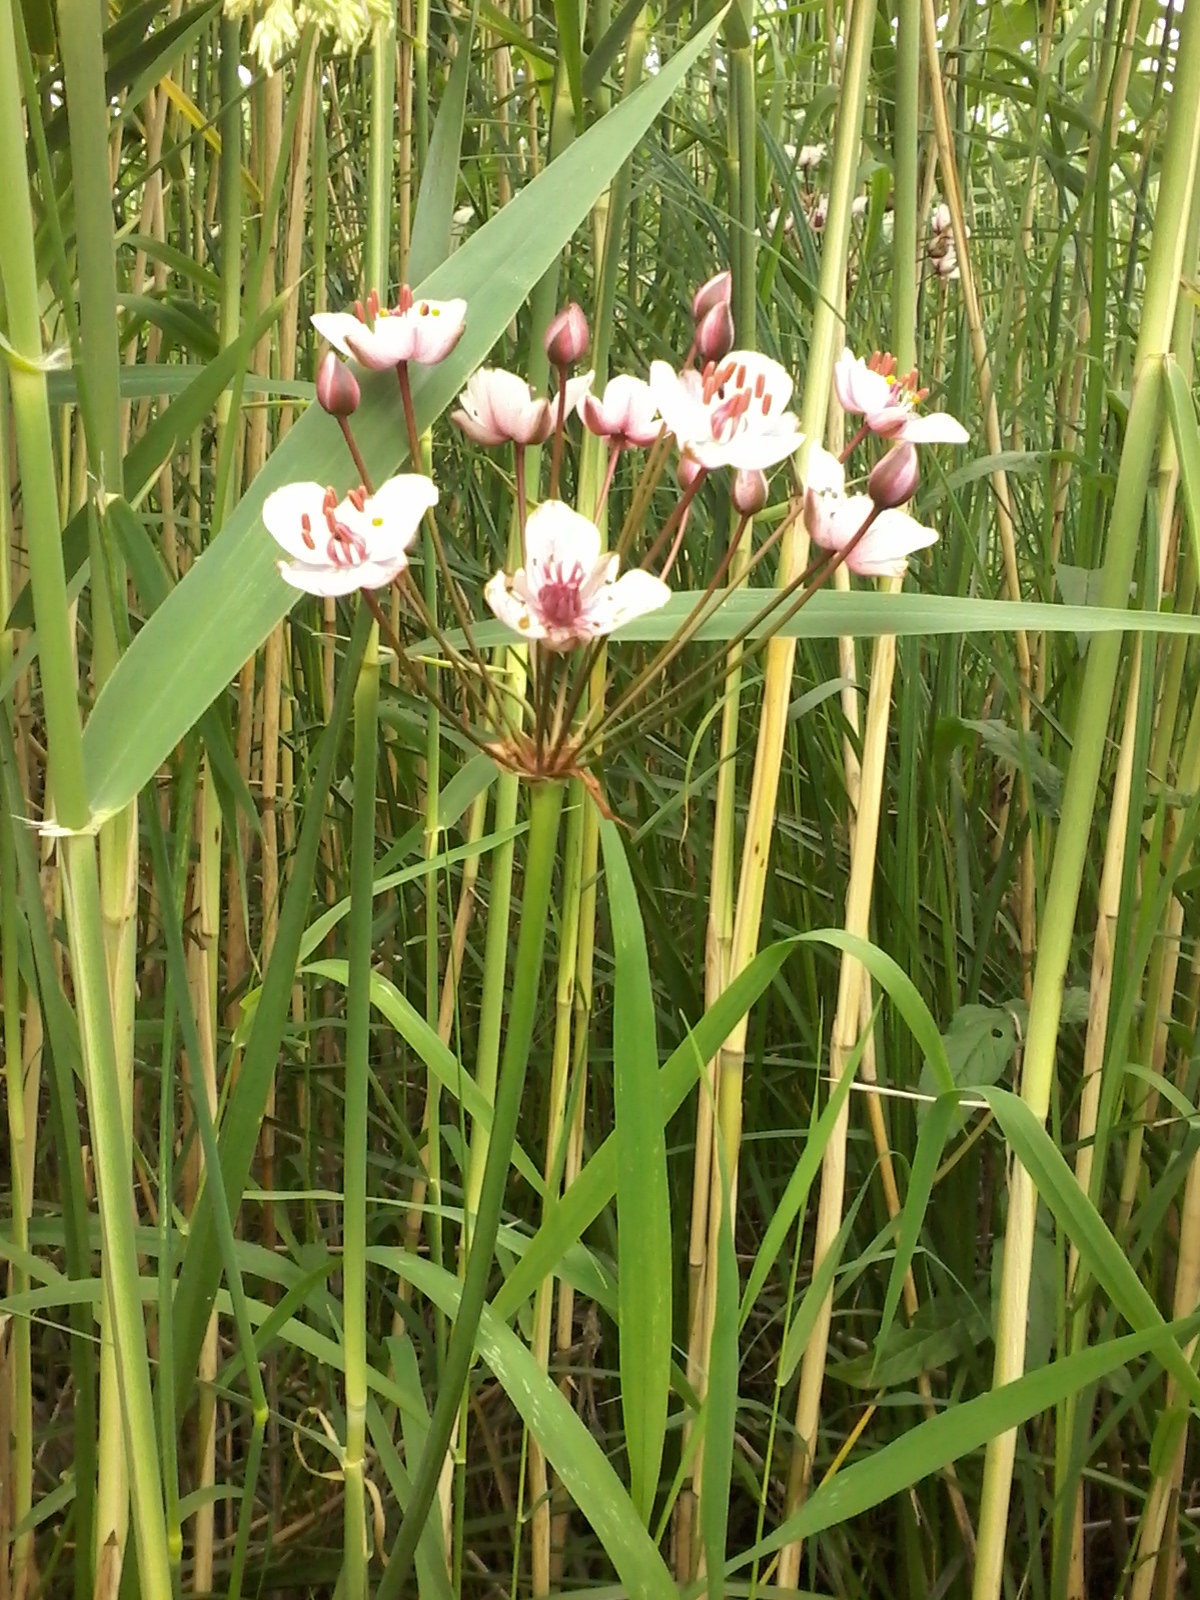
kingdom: Plantae
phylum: Tracheophyta
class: Liliopsida
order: Alismatales
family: Butomaceae
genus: Butomus
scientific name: Butomus umbellatus
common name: Flowering-rush
